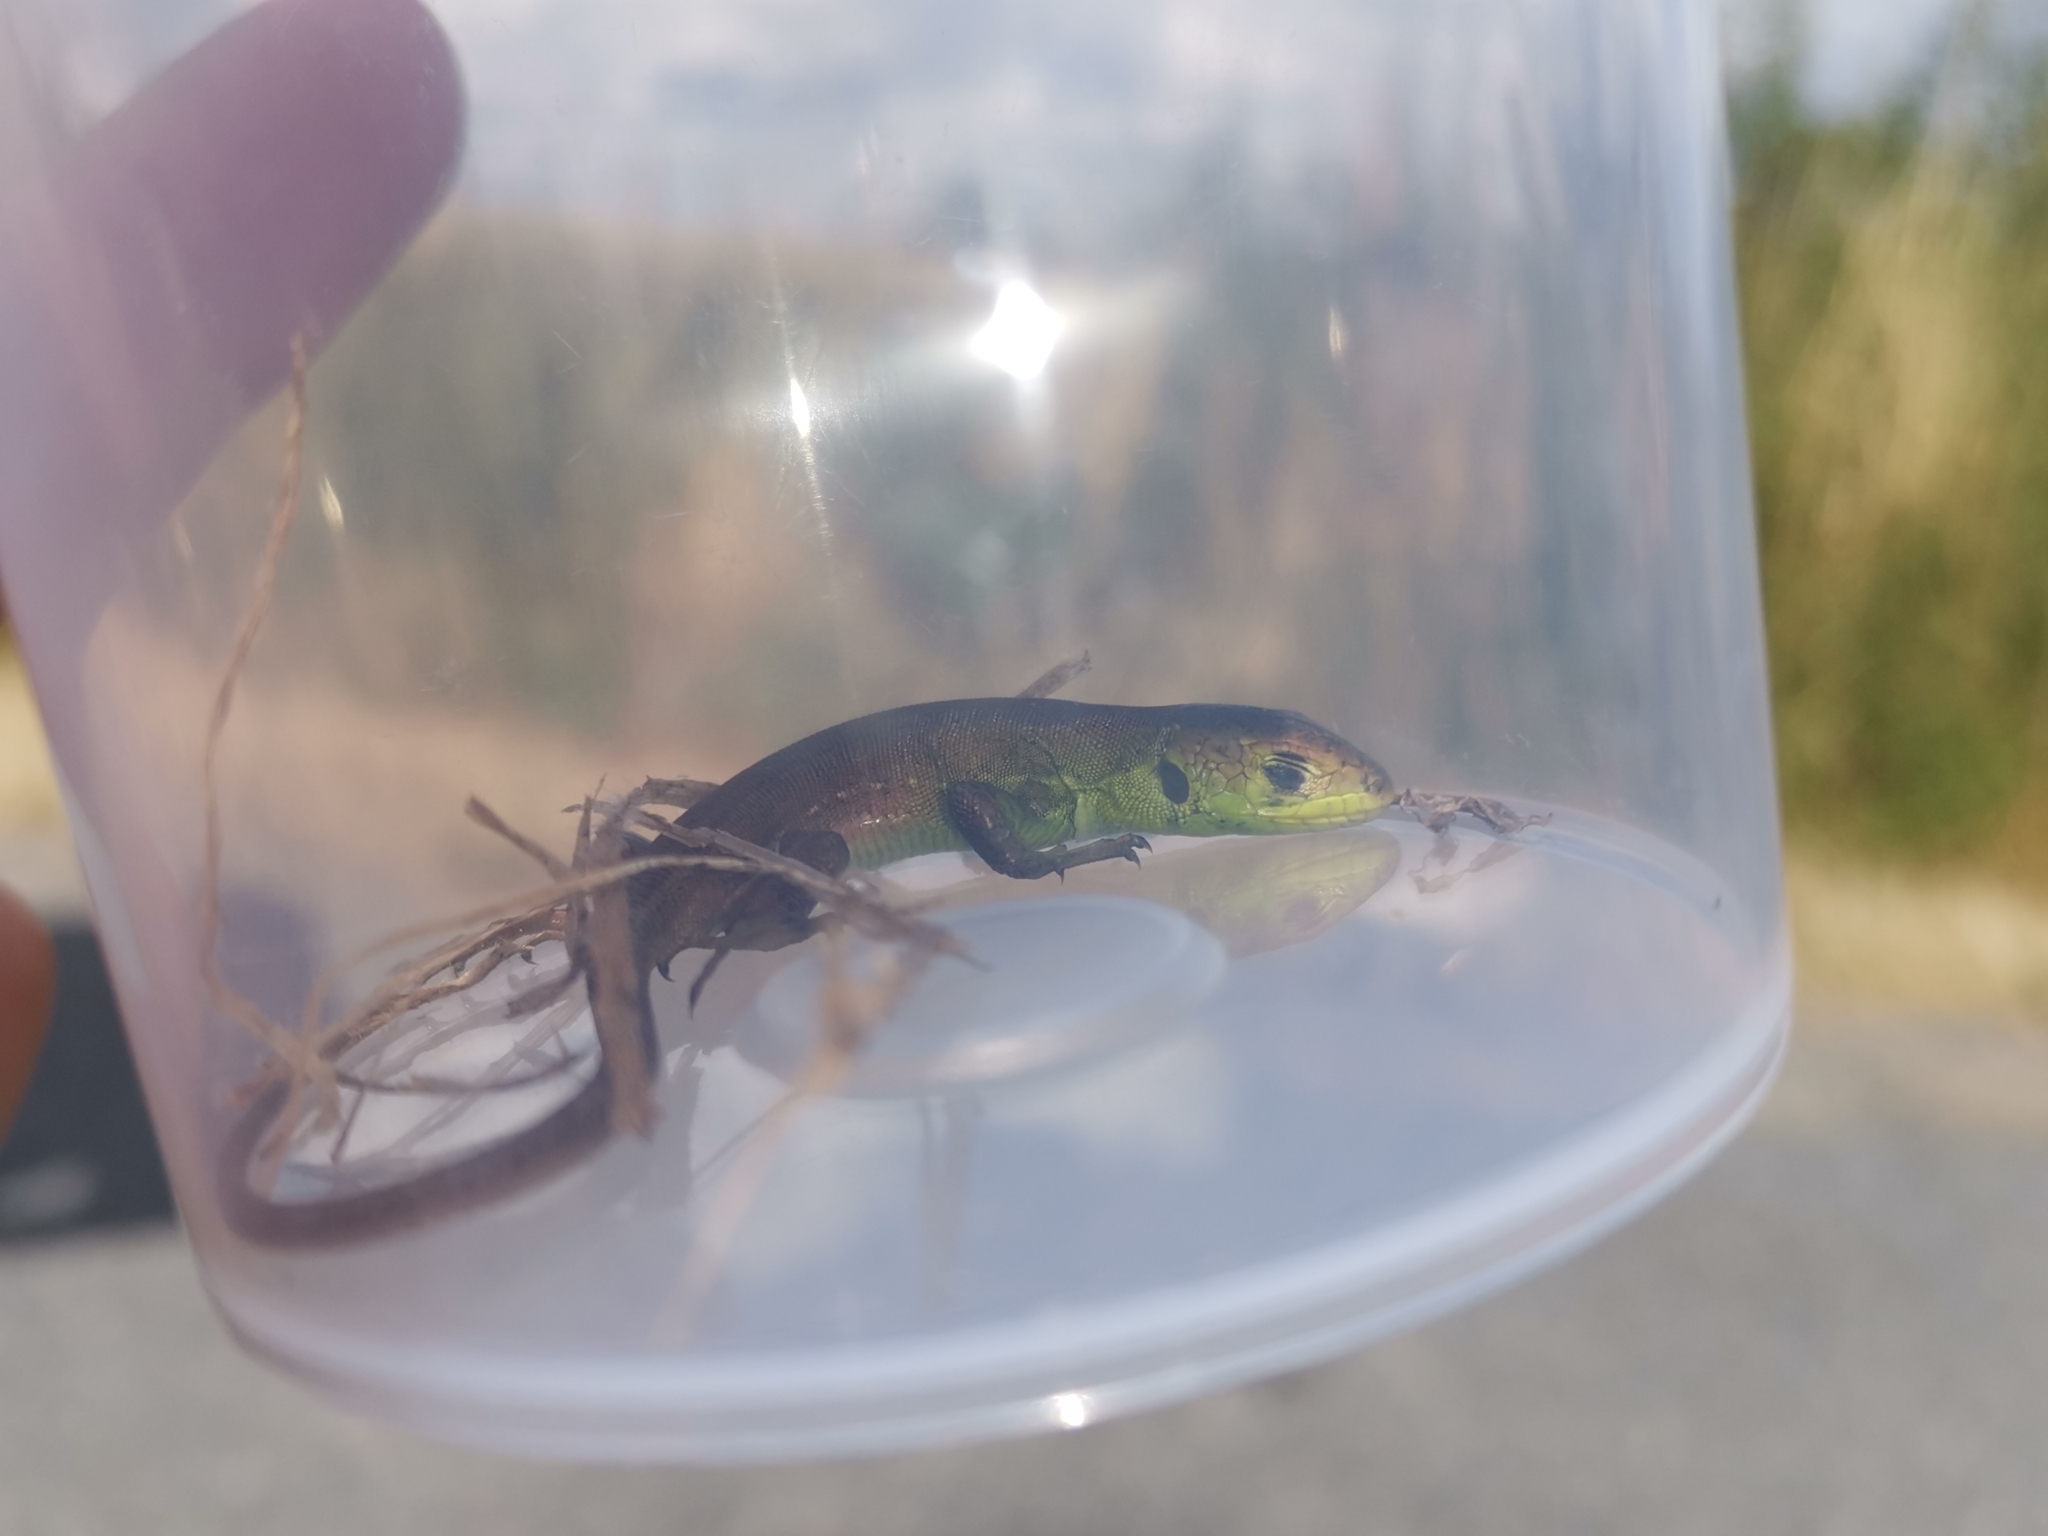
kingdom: Animalia
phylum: Chordata
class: Squamata
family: Lacertidae
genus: Lacerta
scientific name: Lacerta bilineata
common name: Western green lizard
